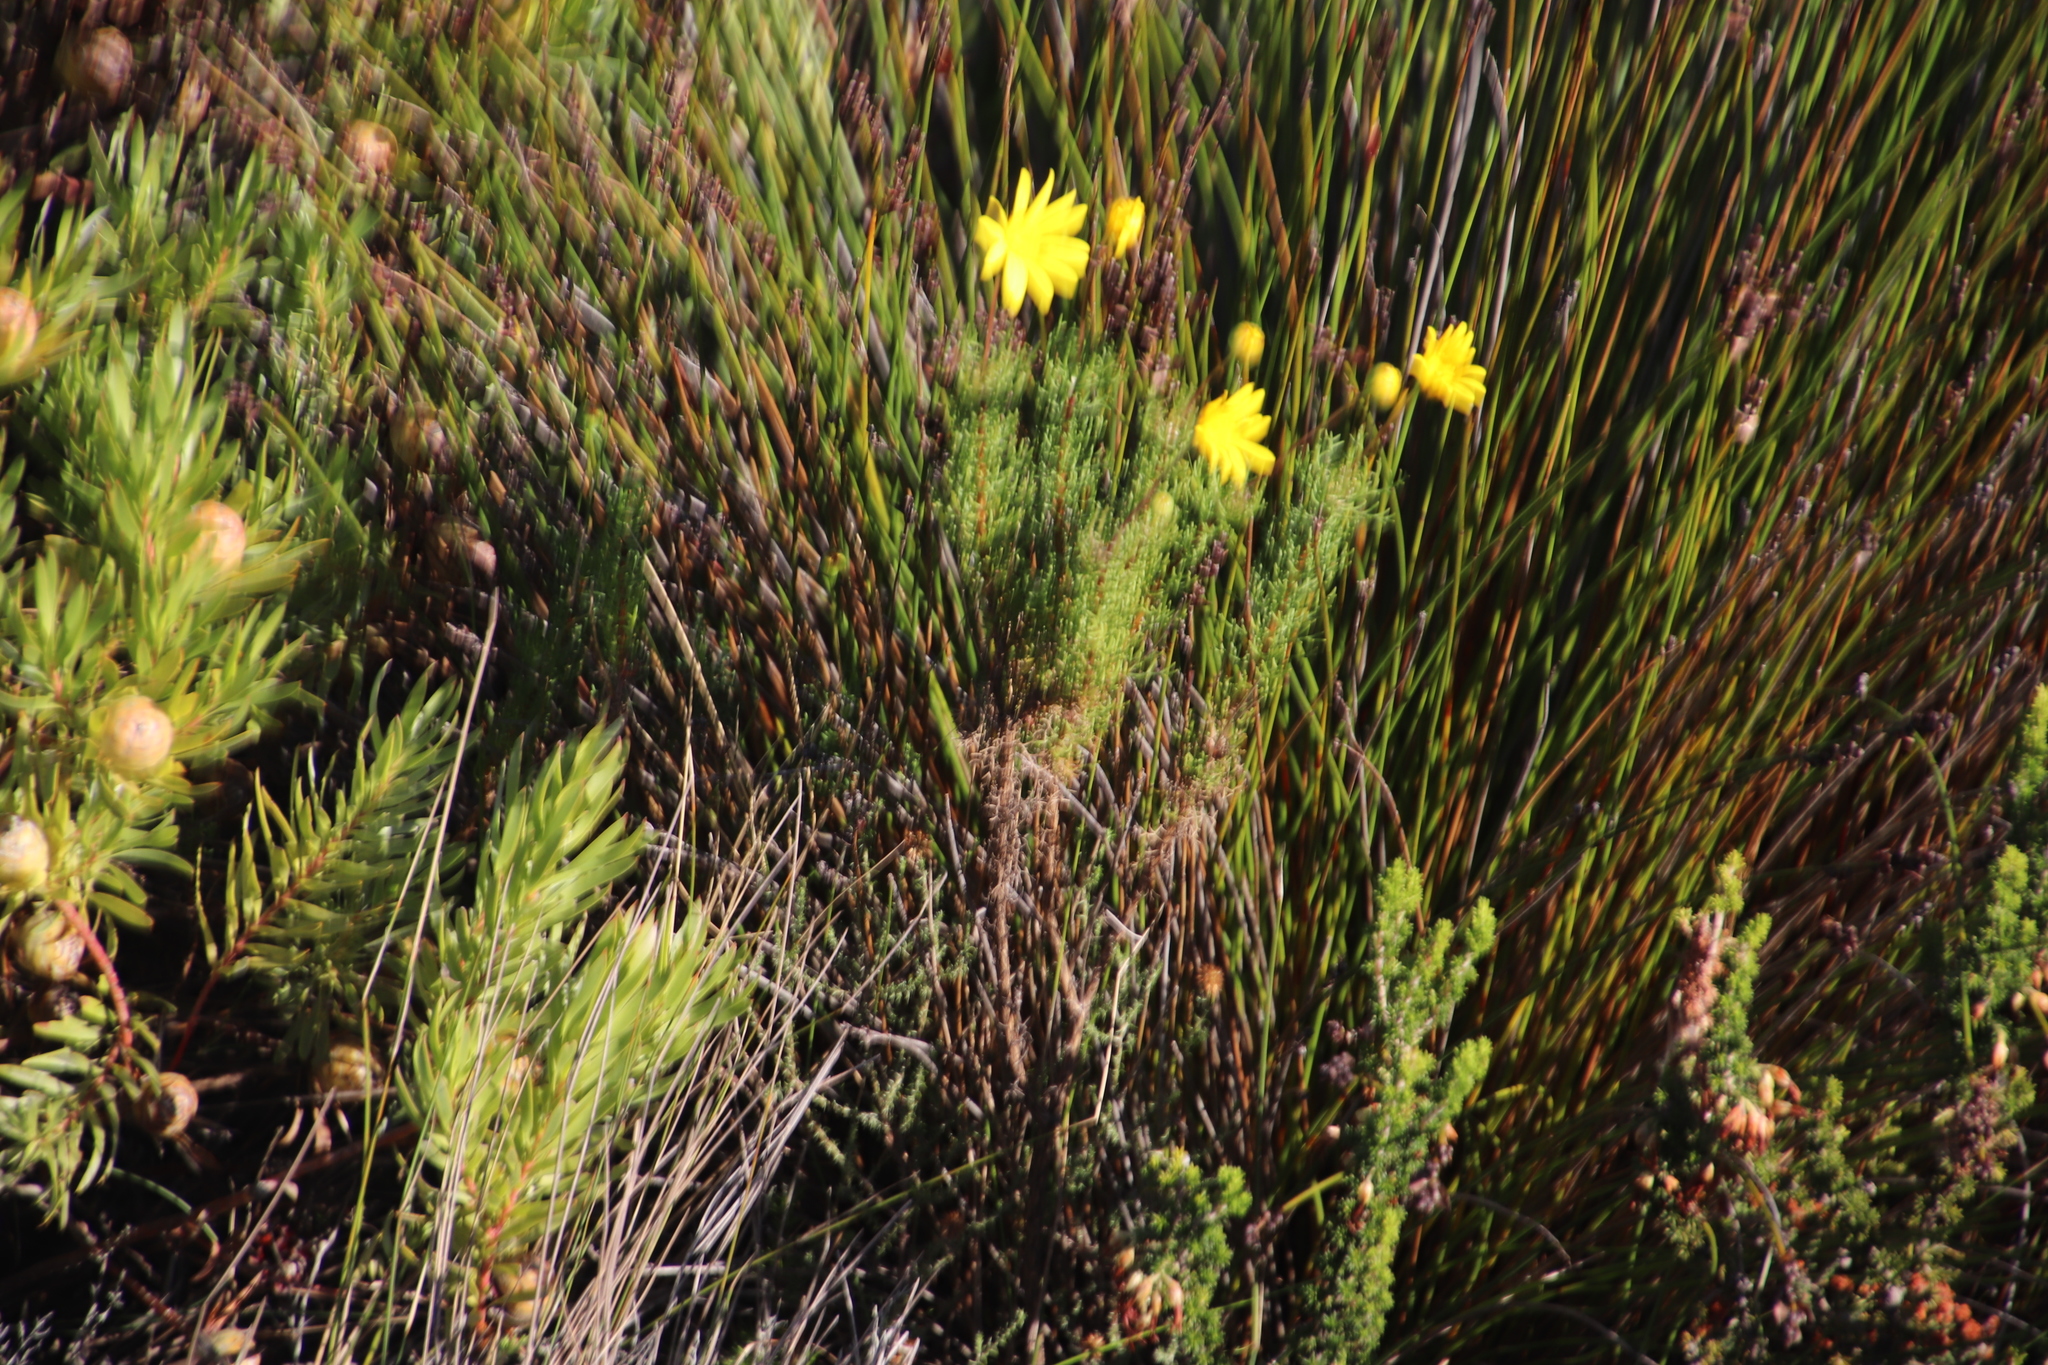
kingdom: Plantae
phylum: Tracheophyta
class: Magnoliopsida
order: Asterales
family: Asteraceae
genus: Euryops
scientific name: Euryops abrotanifolius
